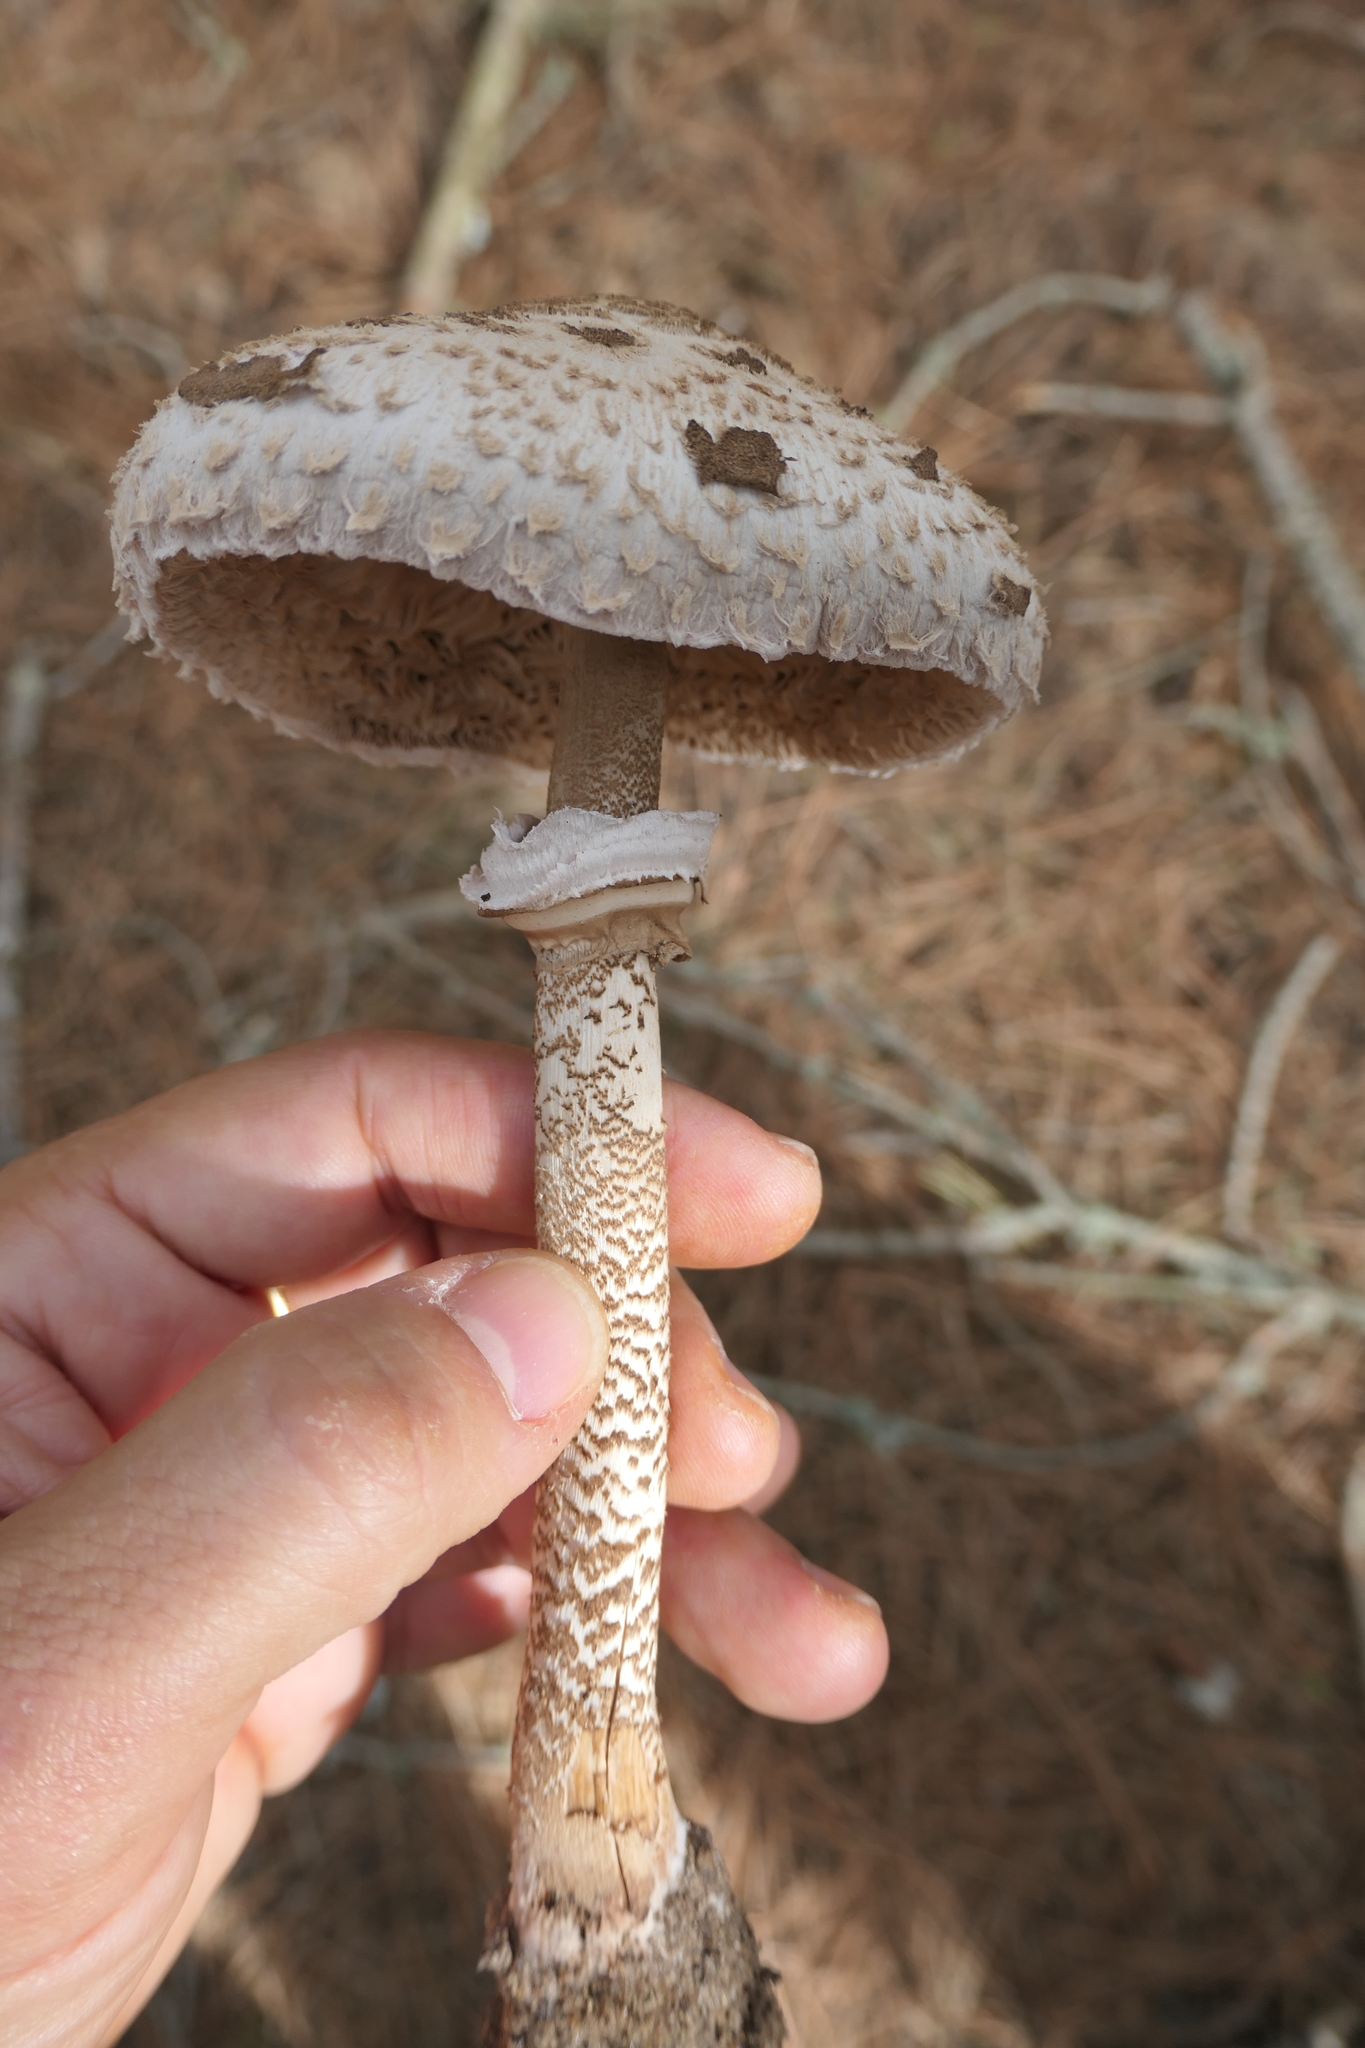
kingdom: Fungi
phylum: Basidiomycota
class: Agaricomycetes
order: Agaricales
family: Agaricaceae
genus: Macrolepiota
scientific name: Macrolepiota procera
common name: Parasol
